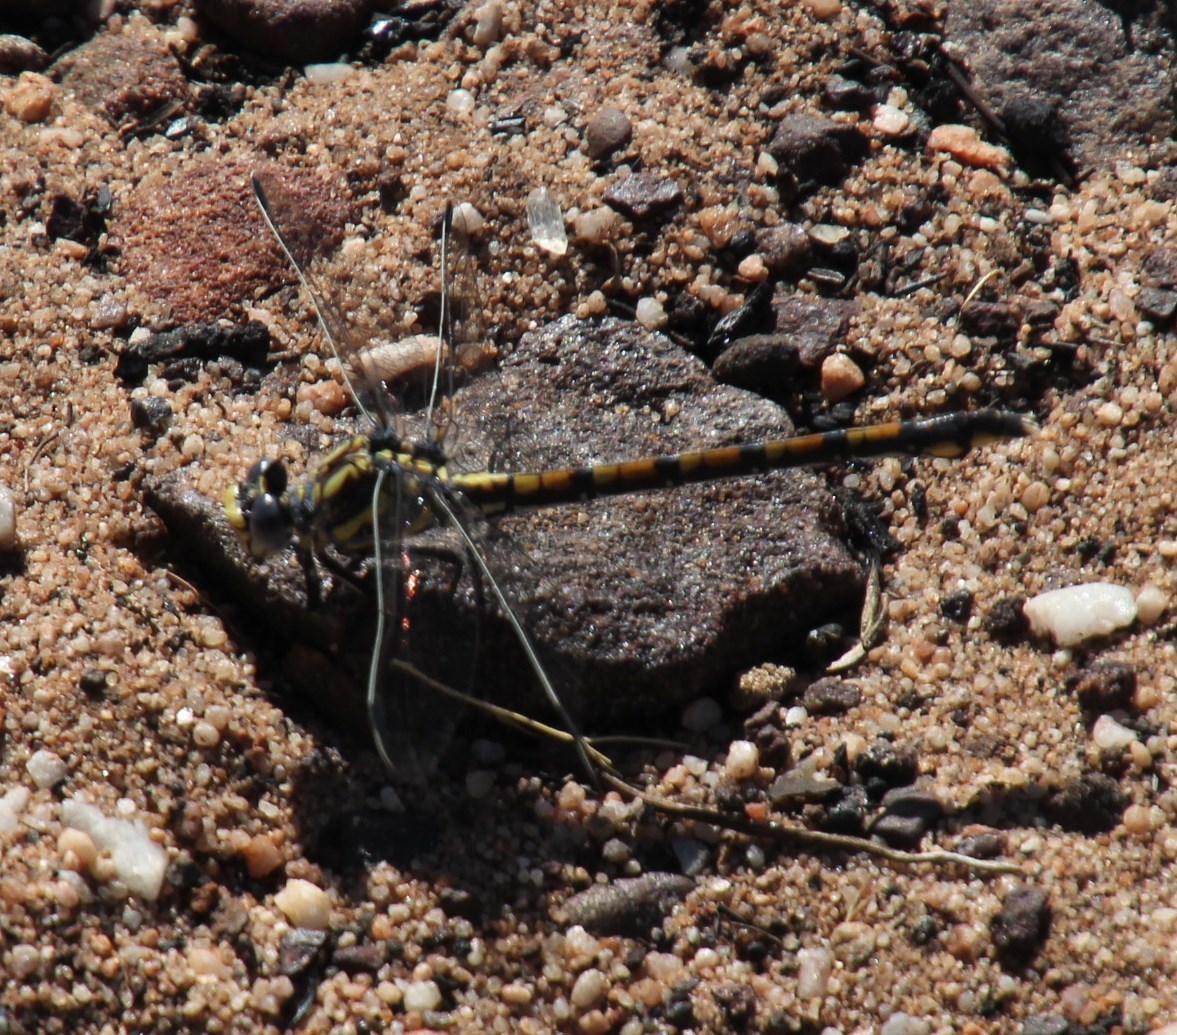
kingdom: Animalia
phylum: Arthropoda
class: Insecta
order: Odonata
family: Gomphidae
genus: Ceratogomphus
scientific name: Ceratogomphus triceraticus
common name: Cape thorntail
